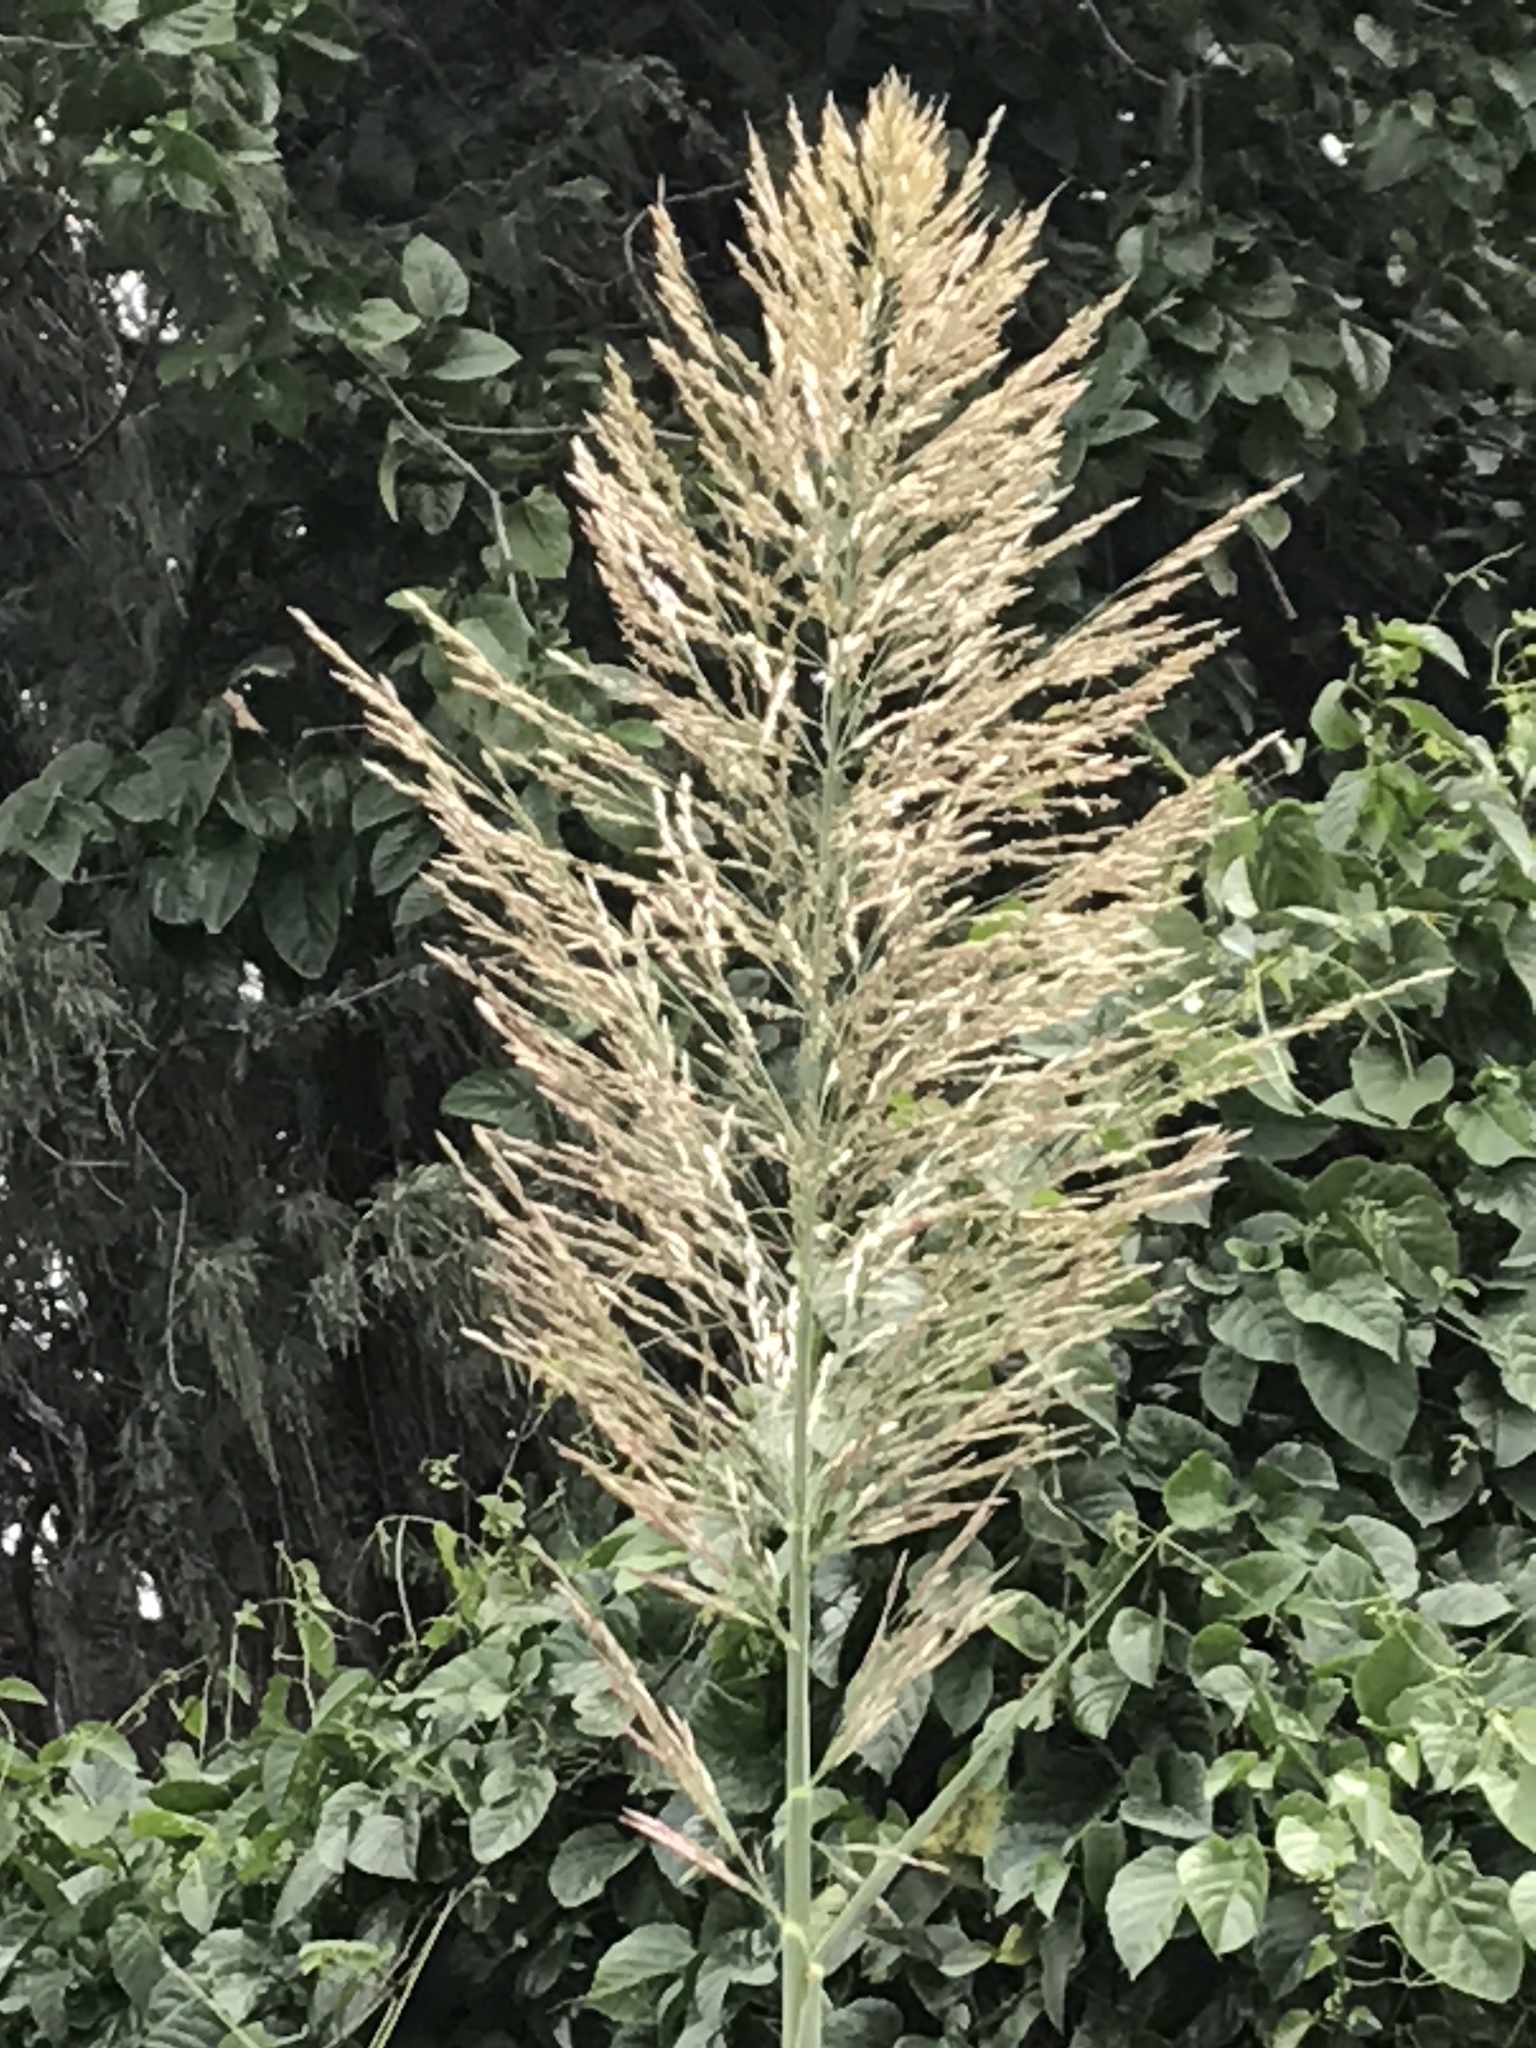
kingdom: Plantae
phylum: Tracheophyta
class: Liliopsida
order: Poales
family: Poaceae
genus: Arundo
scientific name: Arundo donax
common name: Giant reed
